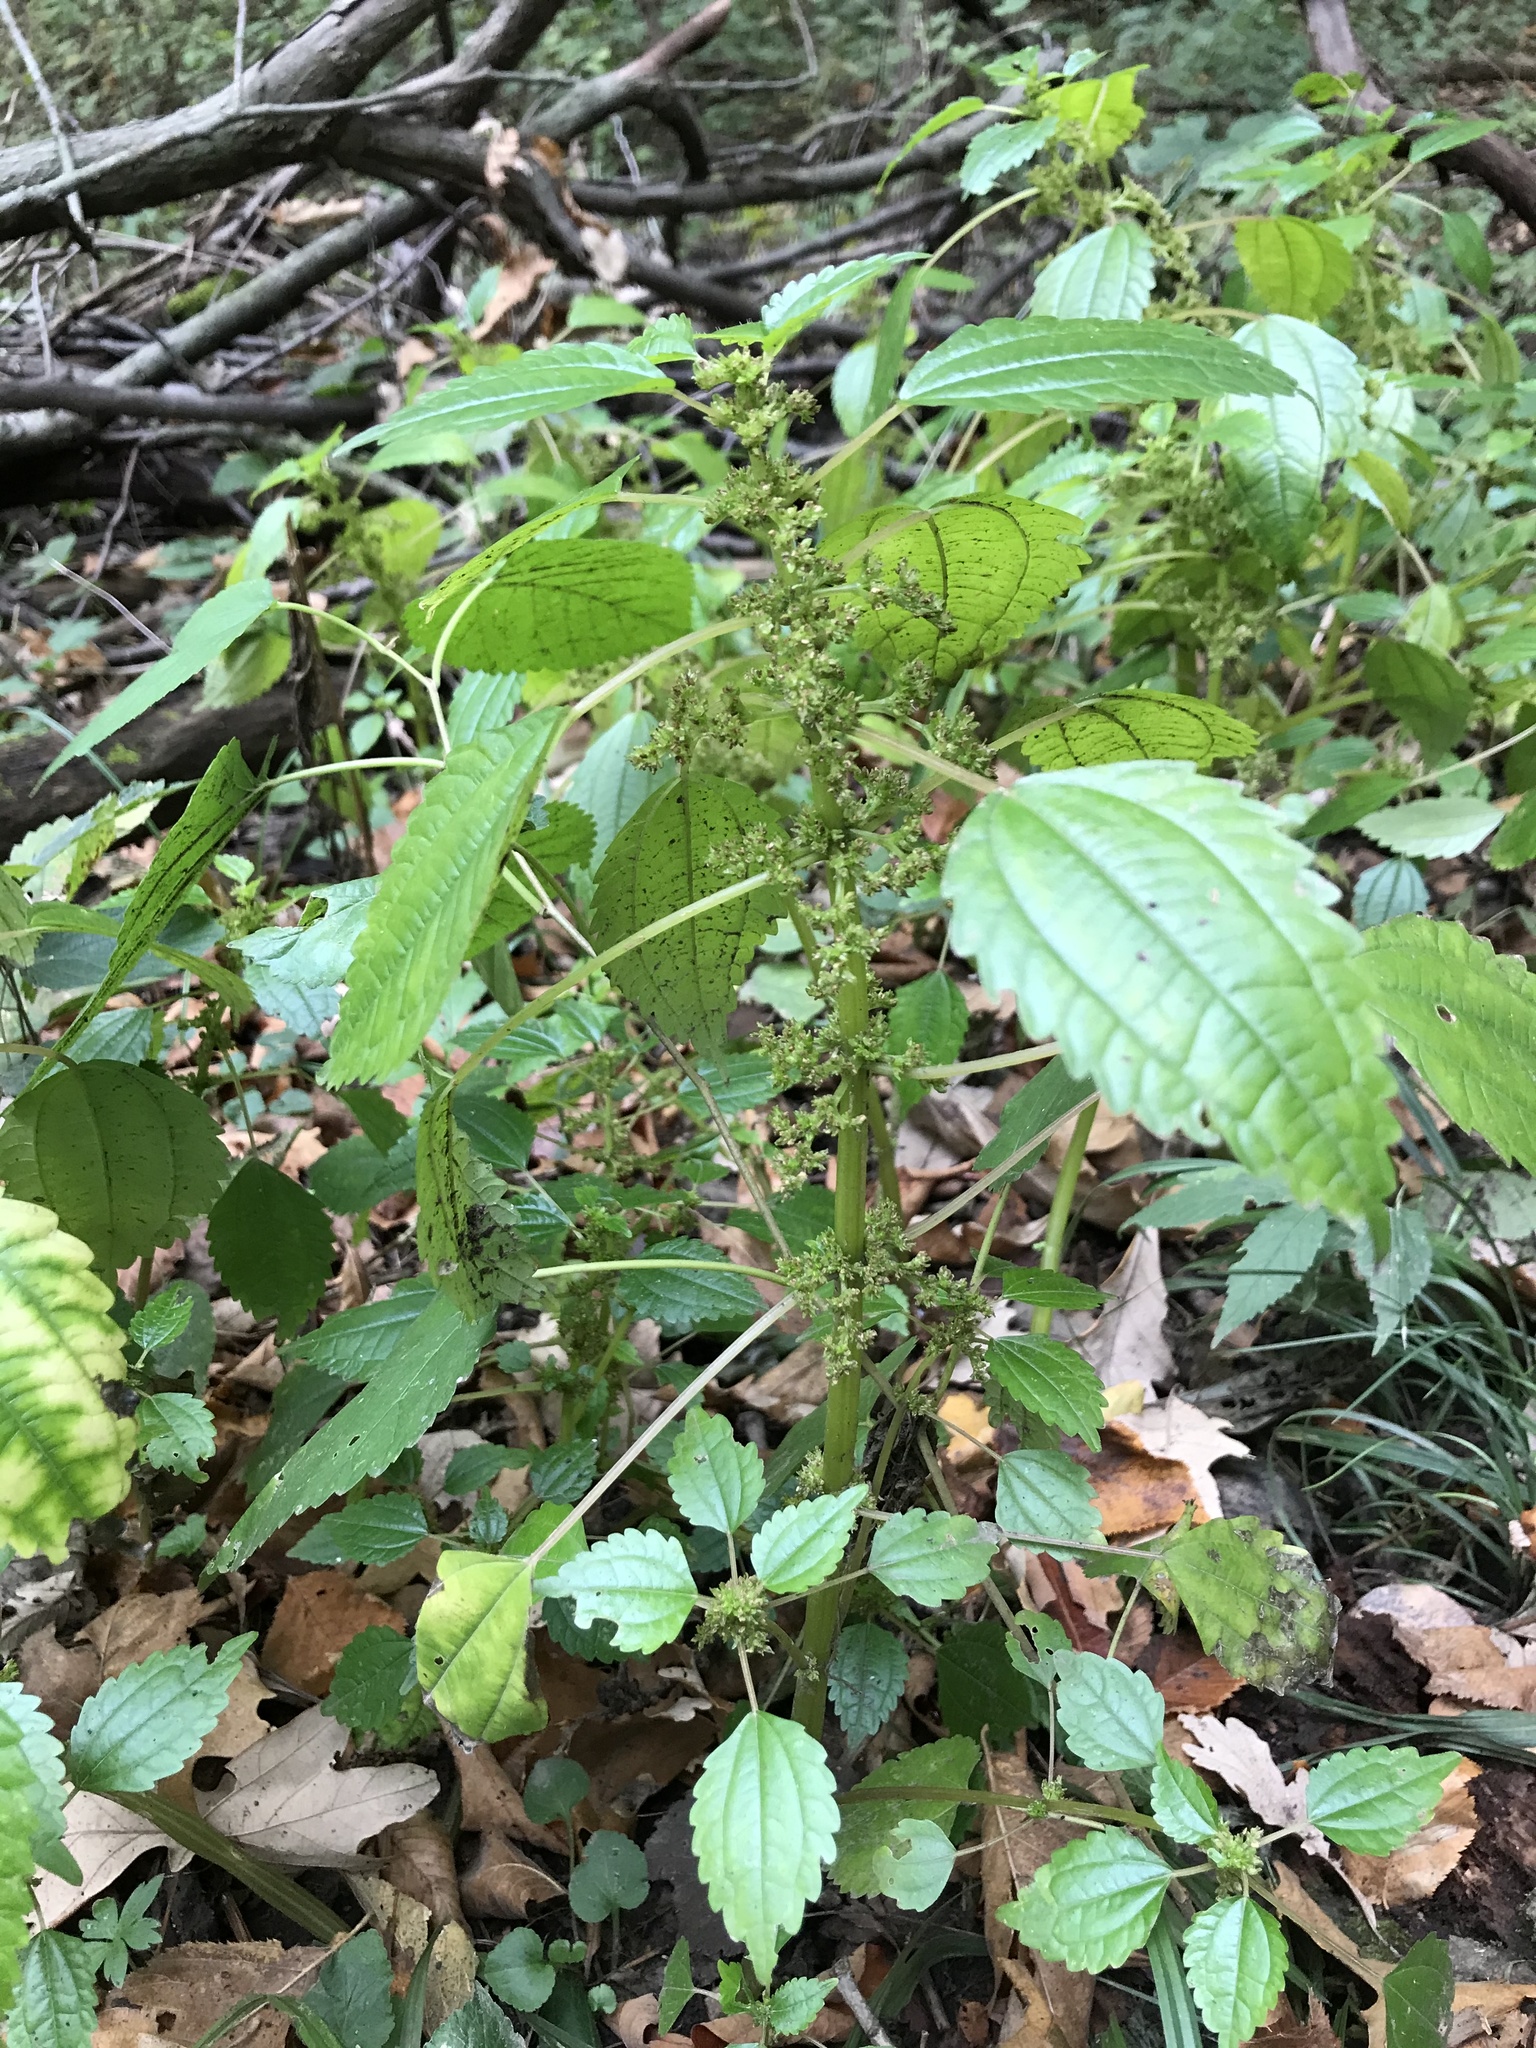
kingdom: Plantae
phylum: Tracheophyta
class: Magnoliopsida
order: Rosales
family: Urticaceae
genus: Pilea
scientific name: Pilea pumila
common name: Clearweed
